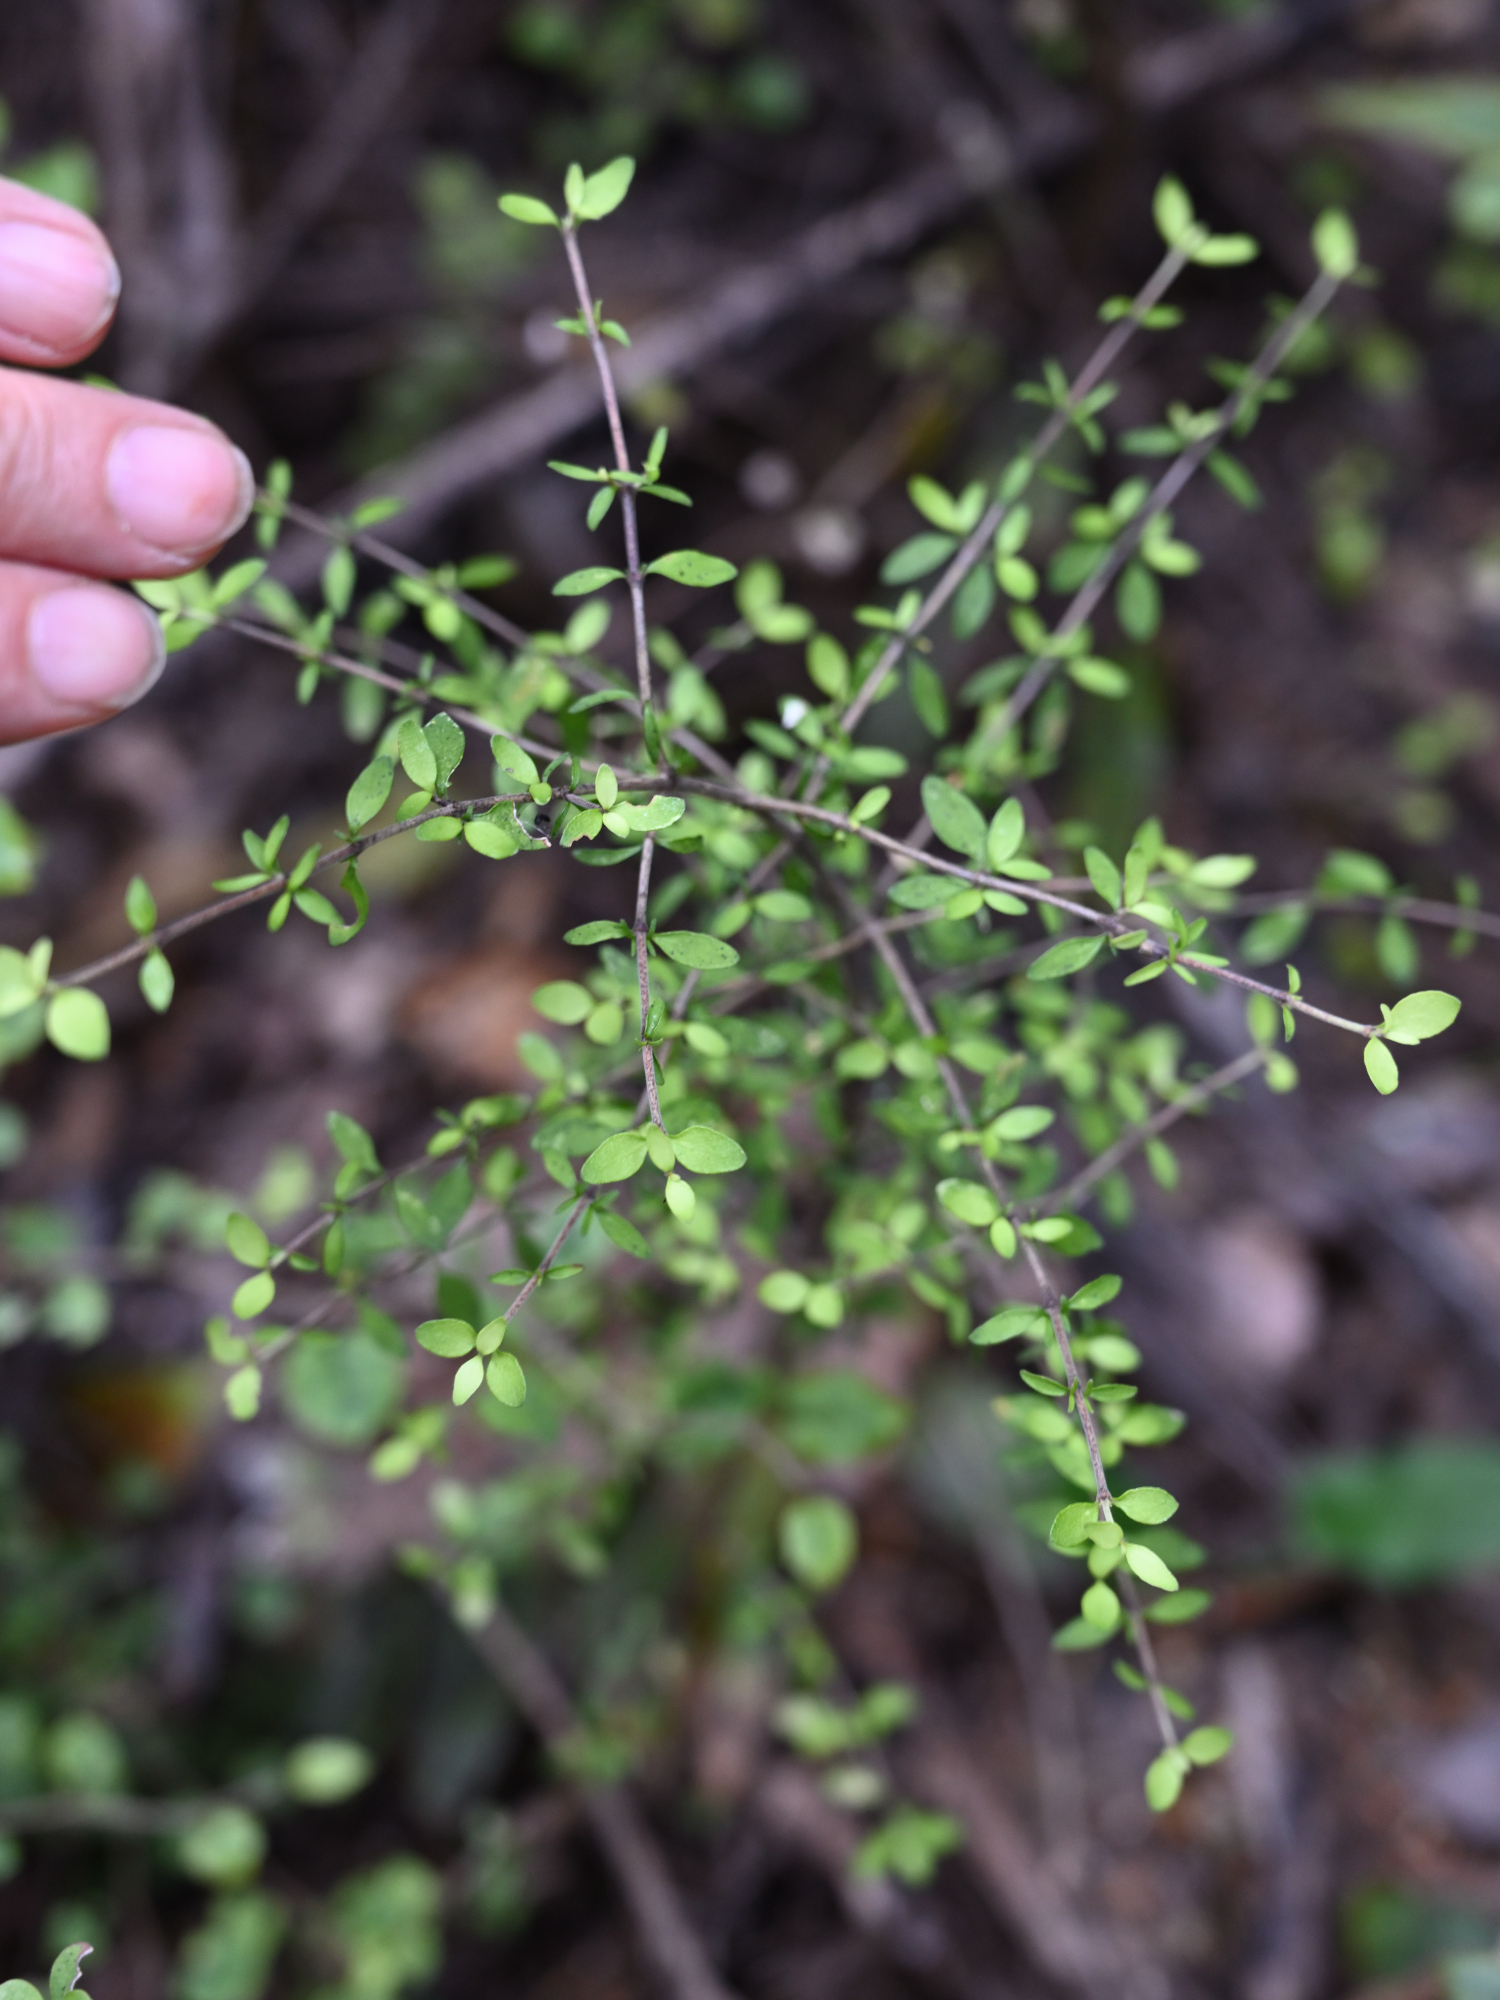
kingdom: Plantae
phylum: Tracheophyta
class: Magnoliopsida
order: Gentianales
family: Rubiaceae
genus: Coprosma
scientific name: Coprosma rhamnoides
